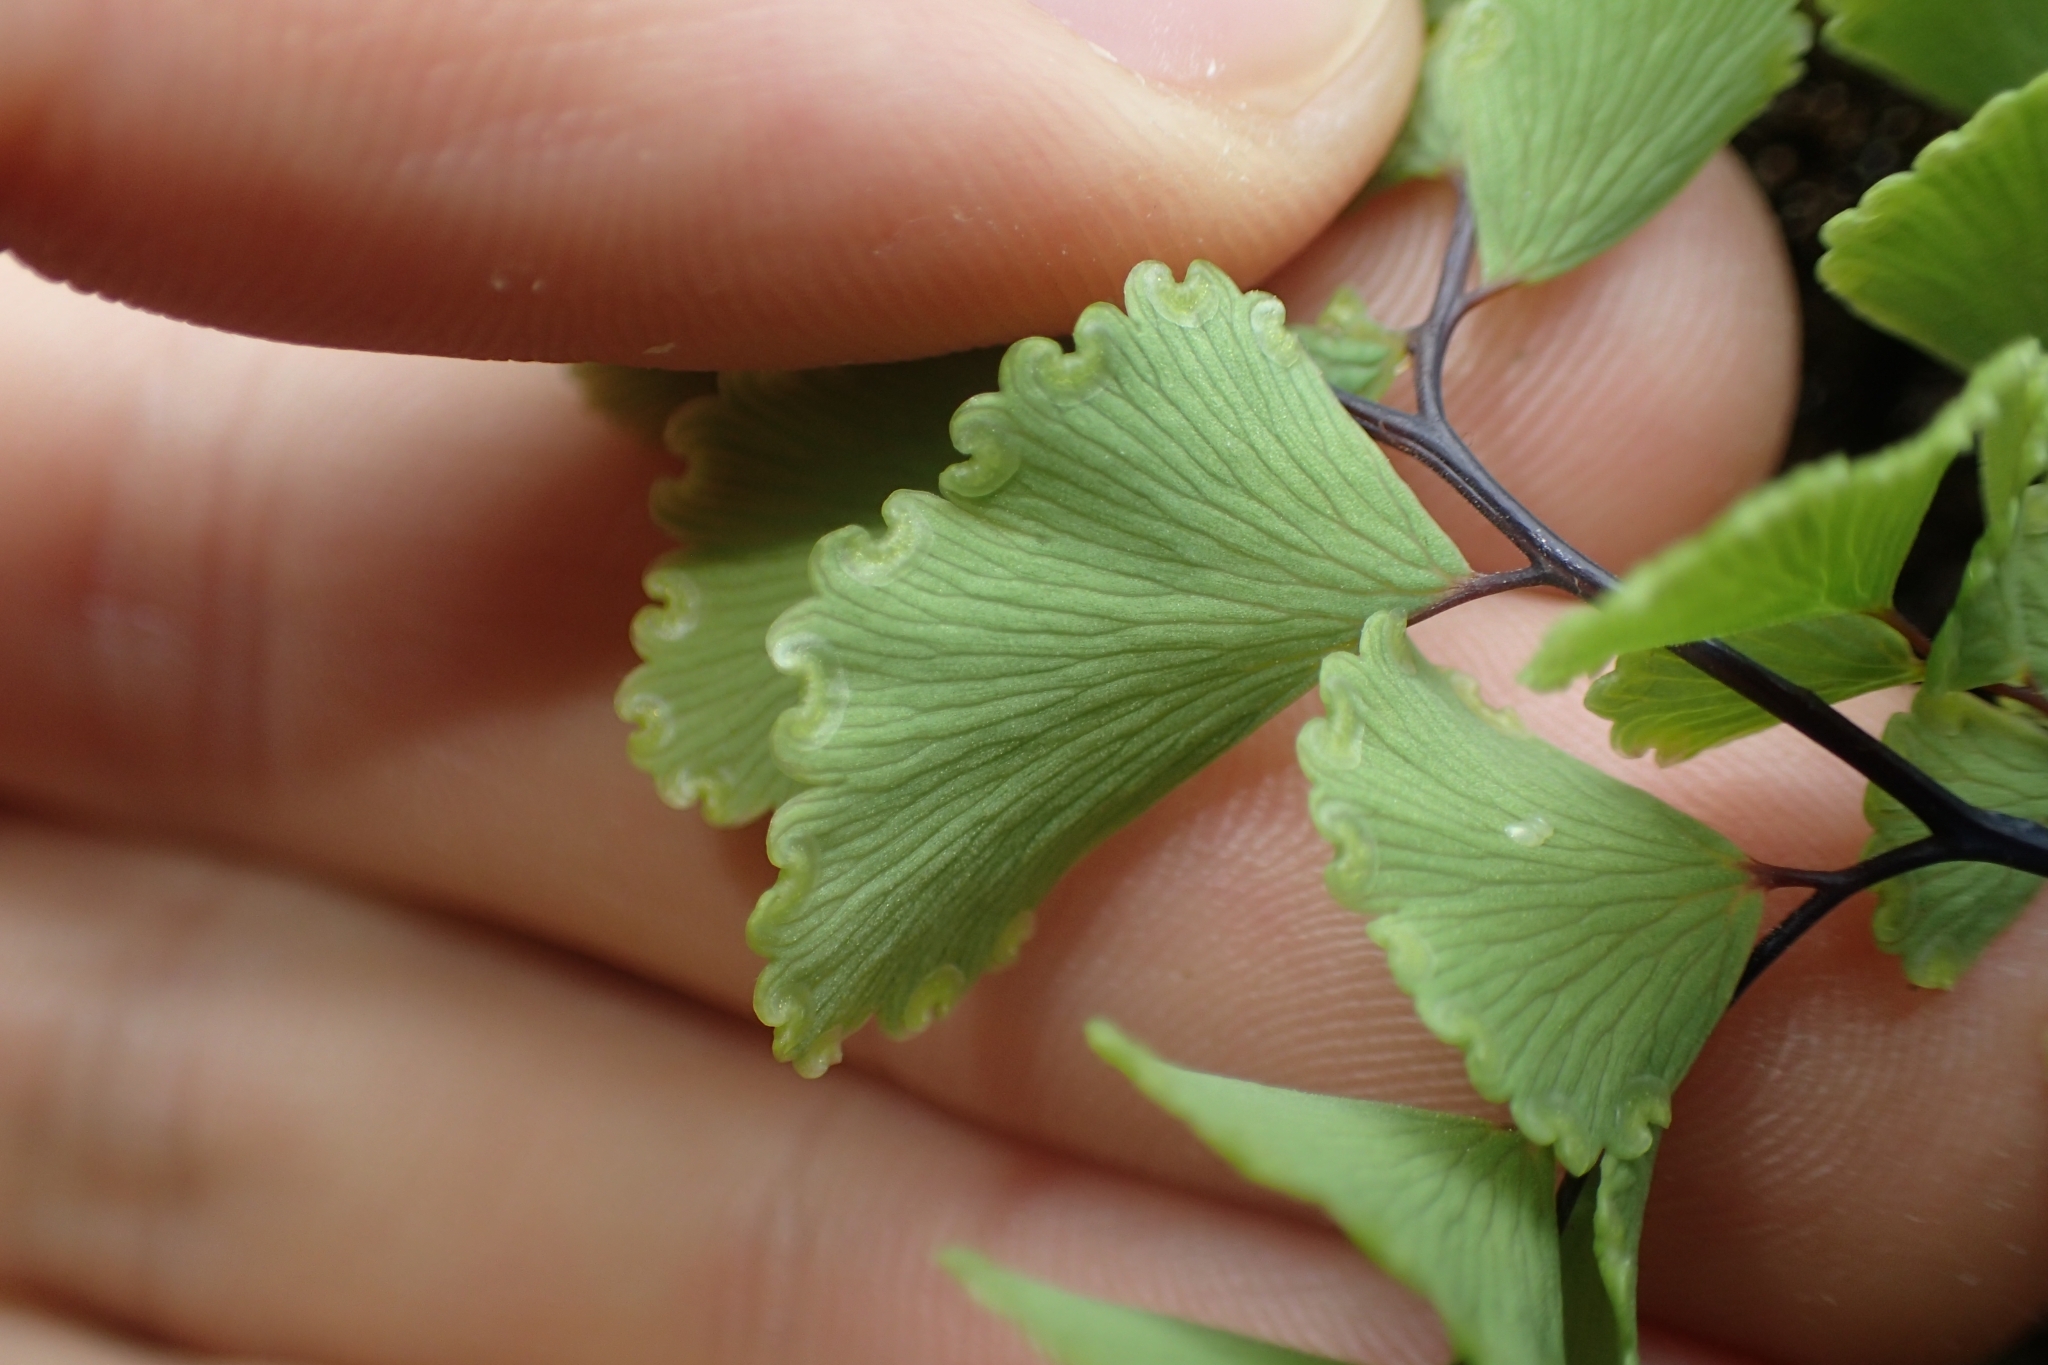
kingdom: Plantae
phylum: Tracheophyta
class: Polypodiopsida
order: Polypodiales
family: Pteridaceae
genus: Adiantum
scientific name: Adiantum cunninghamii
